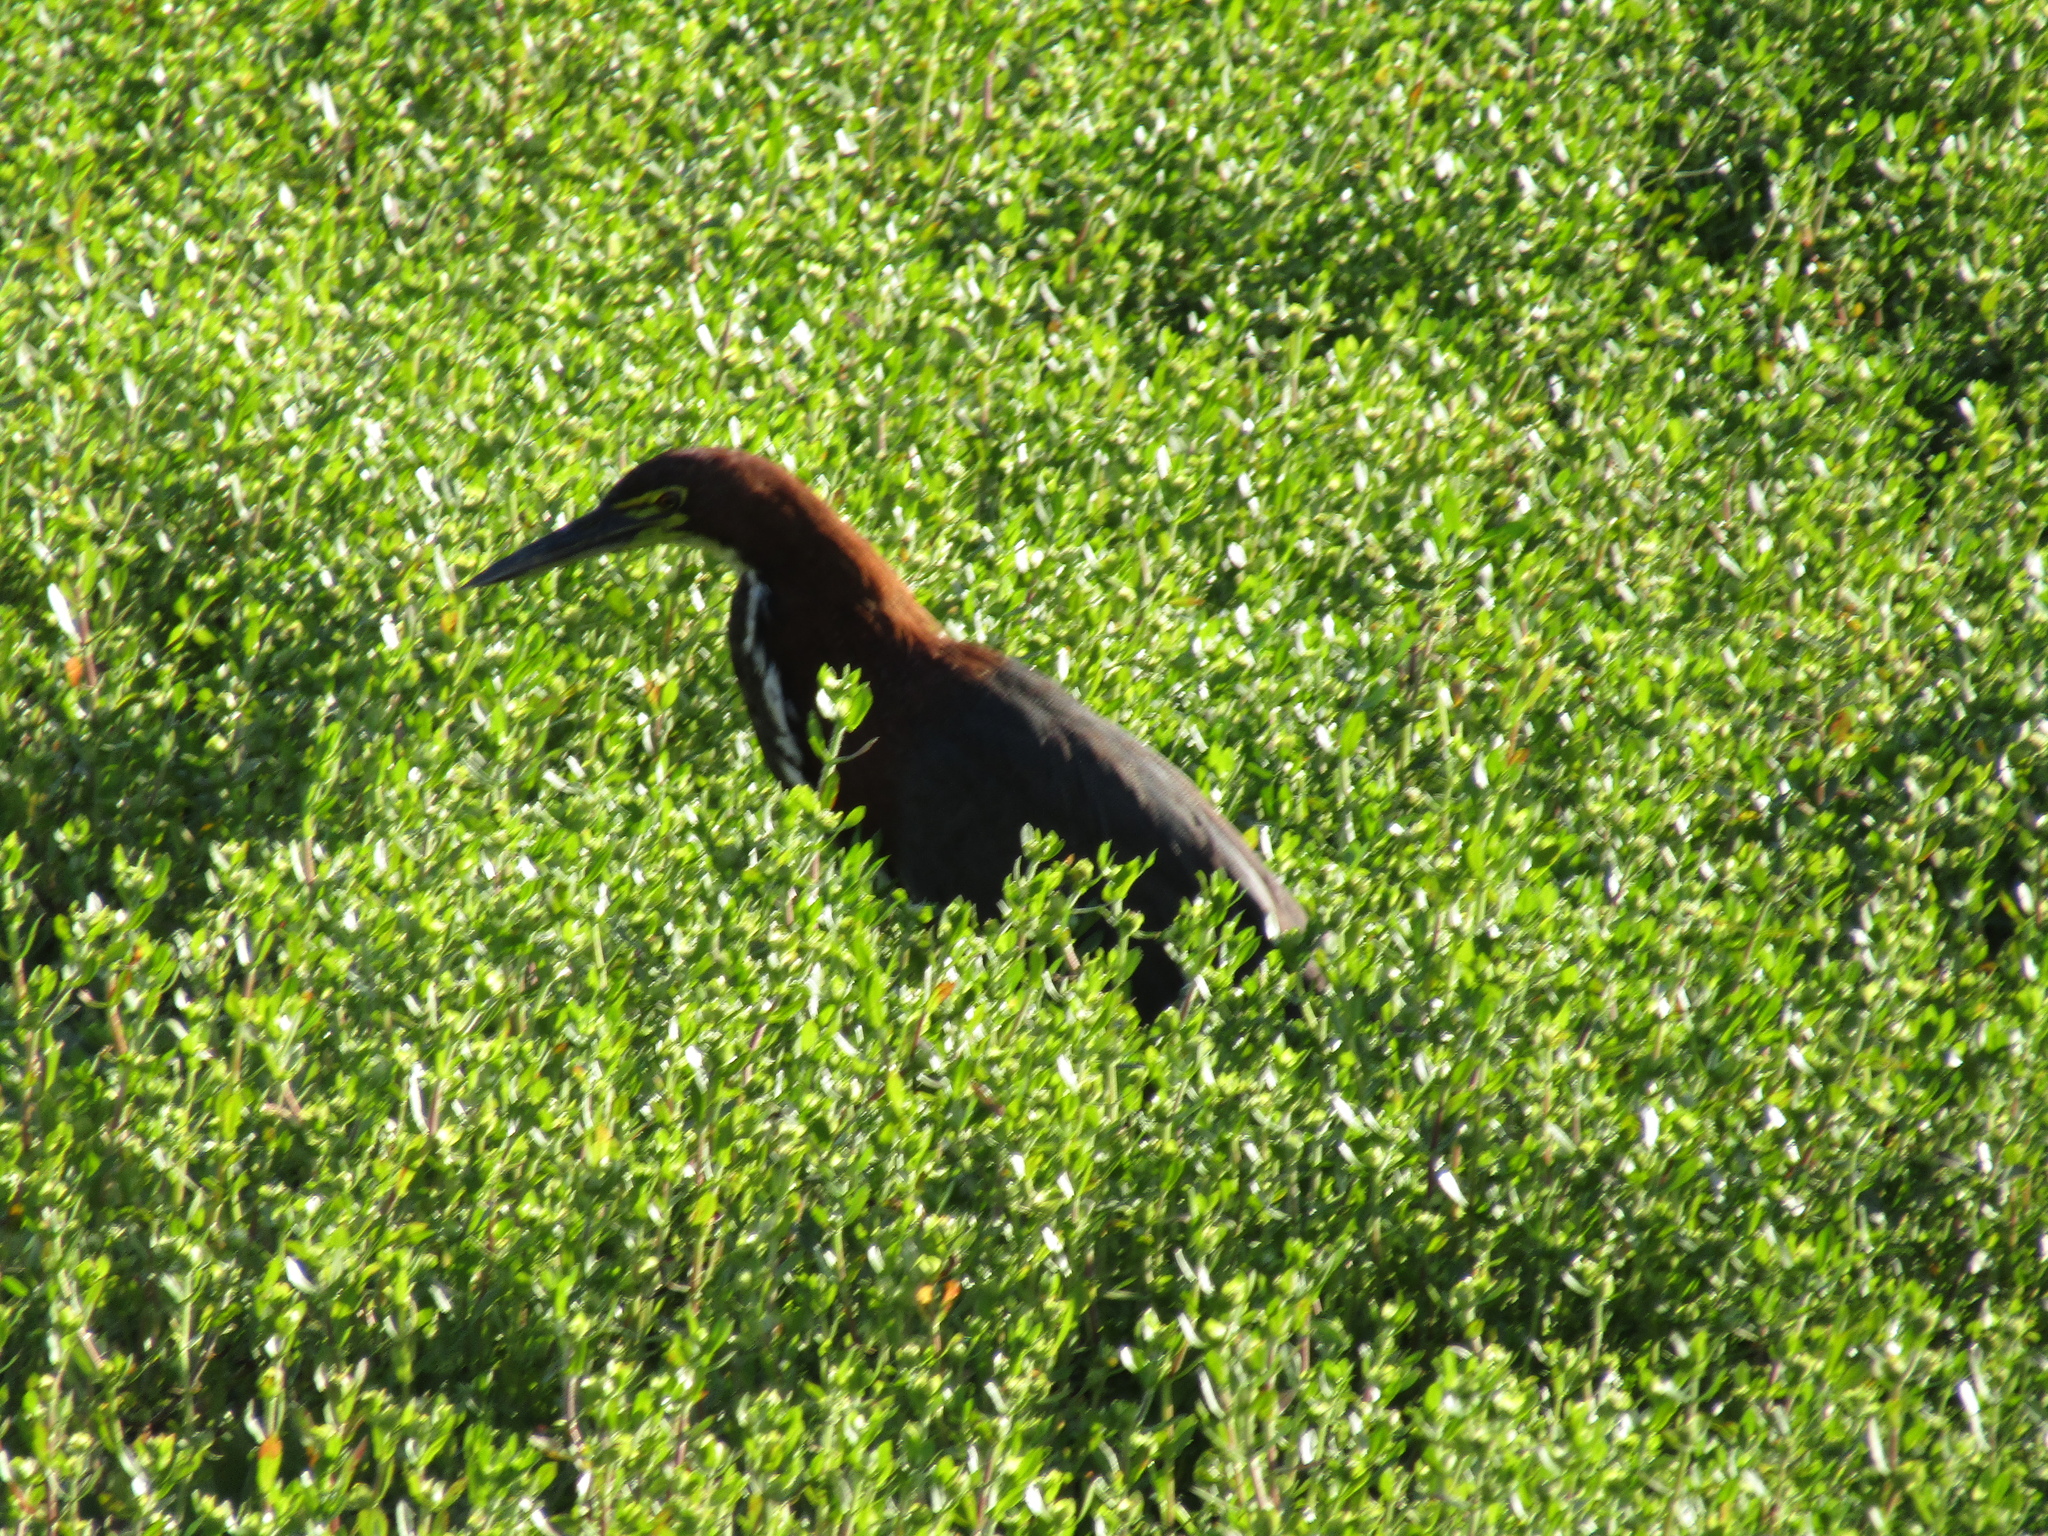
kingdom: Animalia
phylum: Chordata
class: Aves
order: Pelecaniformes
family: Ardeidae
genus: Tigrisoma
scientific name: Tigrisoma lineatum
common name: Rufescent tiger-heron
